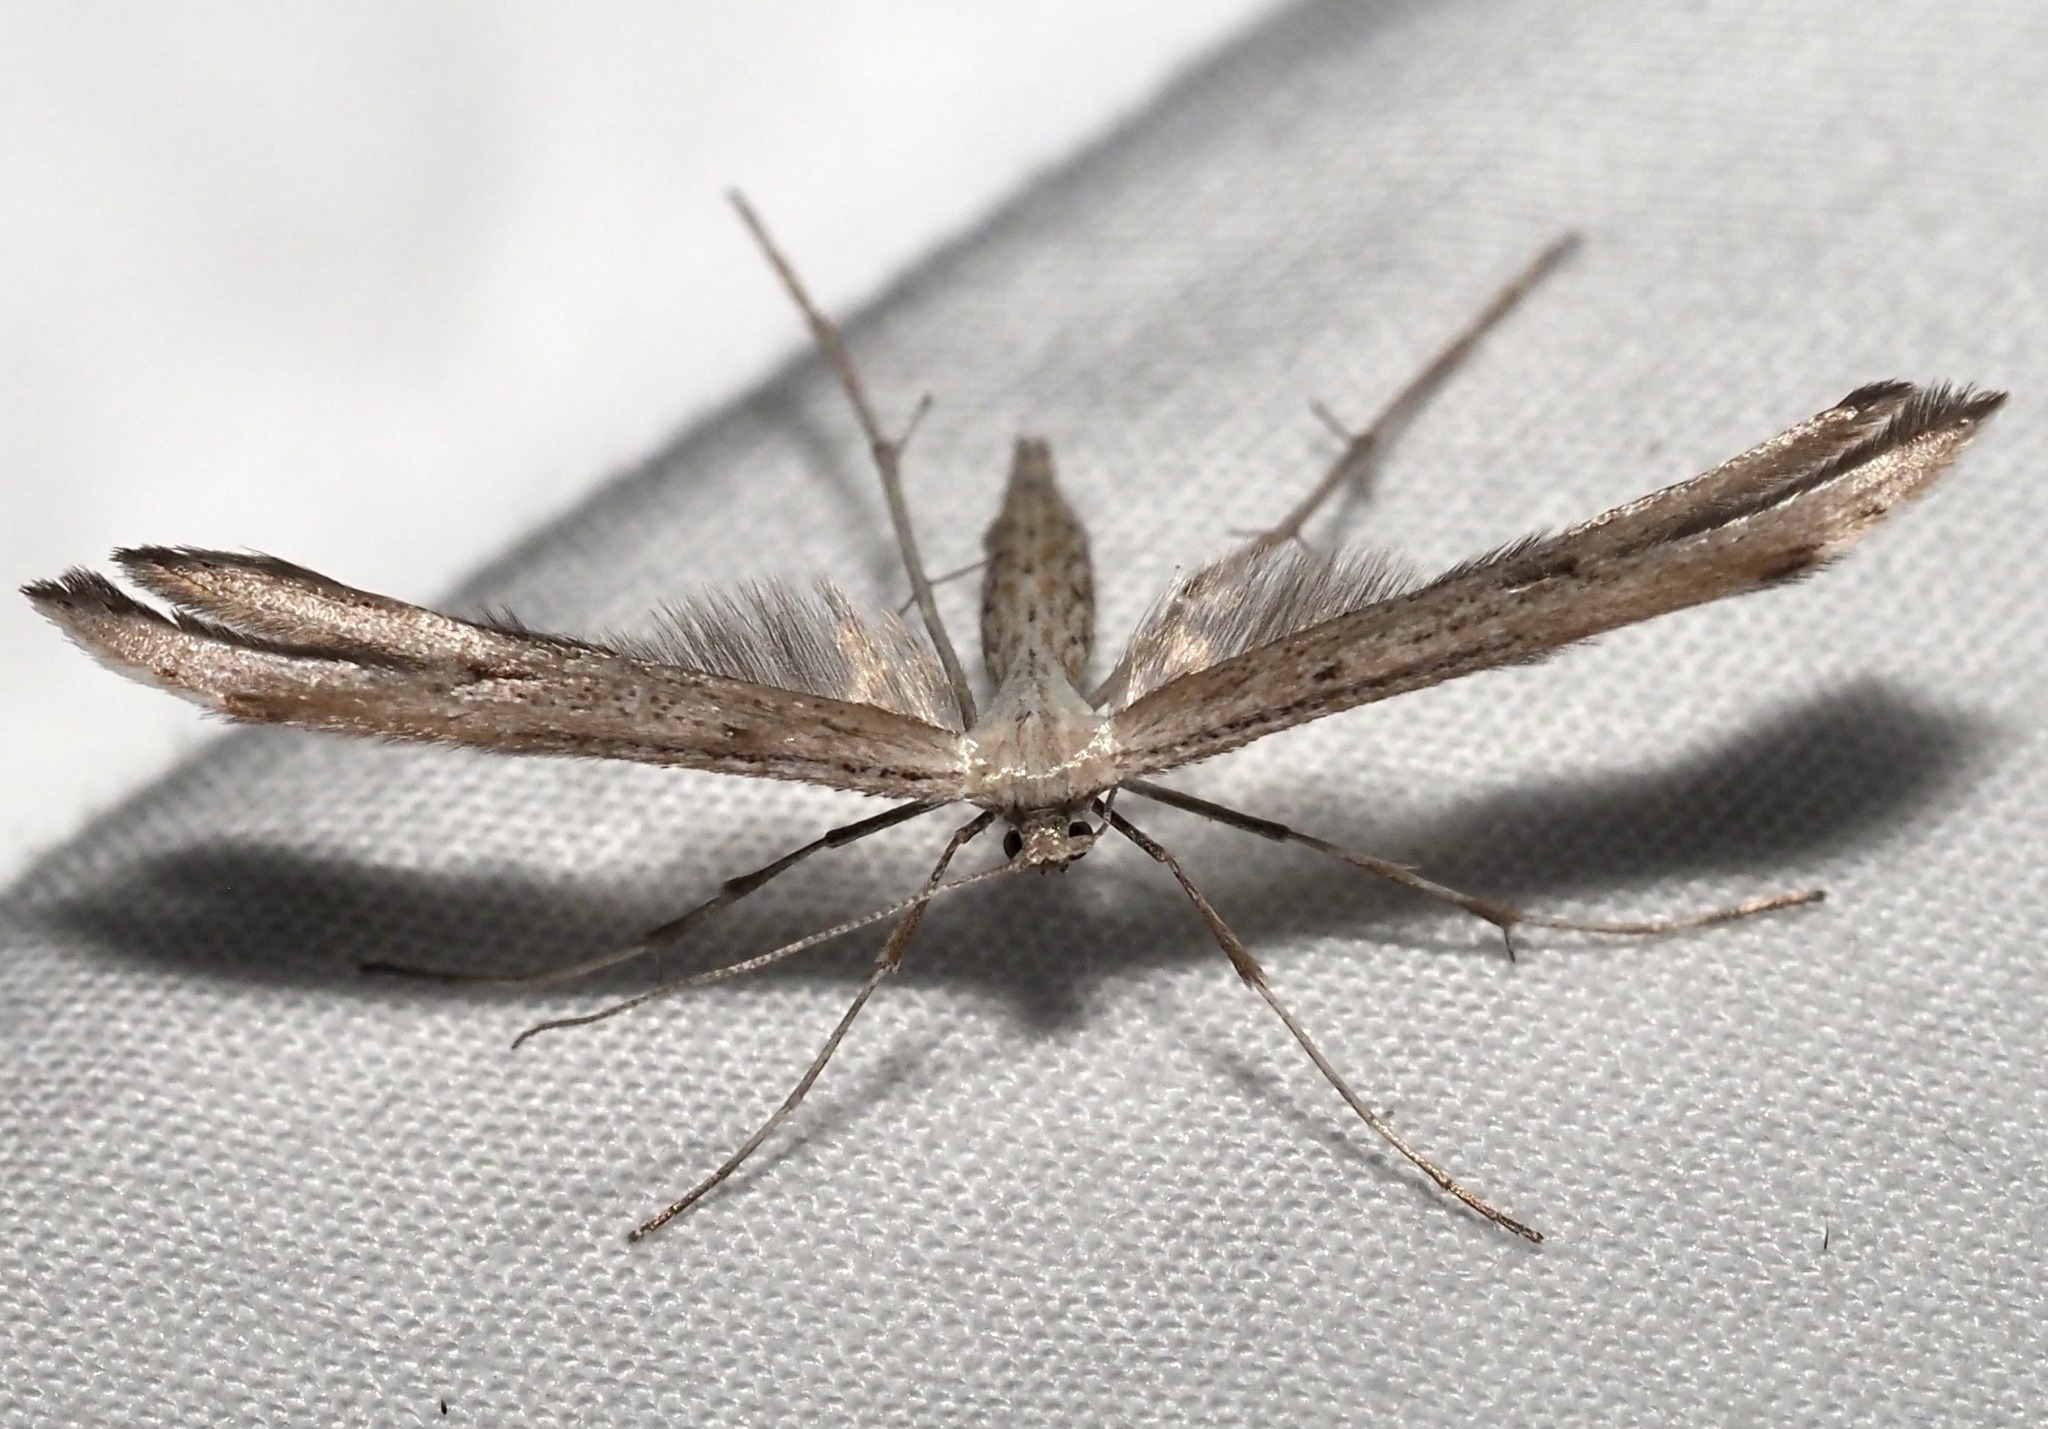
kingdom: Animalia
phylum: Arthropoda
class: Insecta
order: Lepidoptera
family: Pterophoridae
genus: Emmelina
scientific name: Emmelina monodactyla
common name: Common plume
